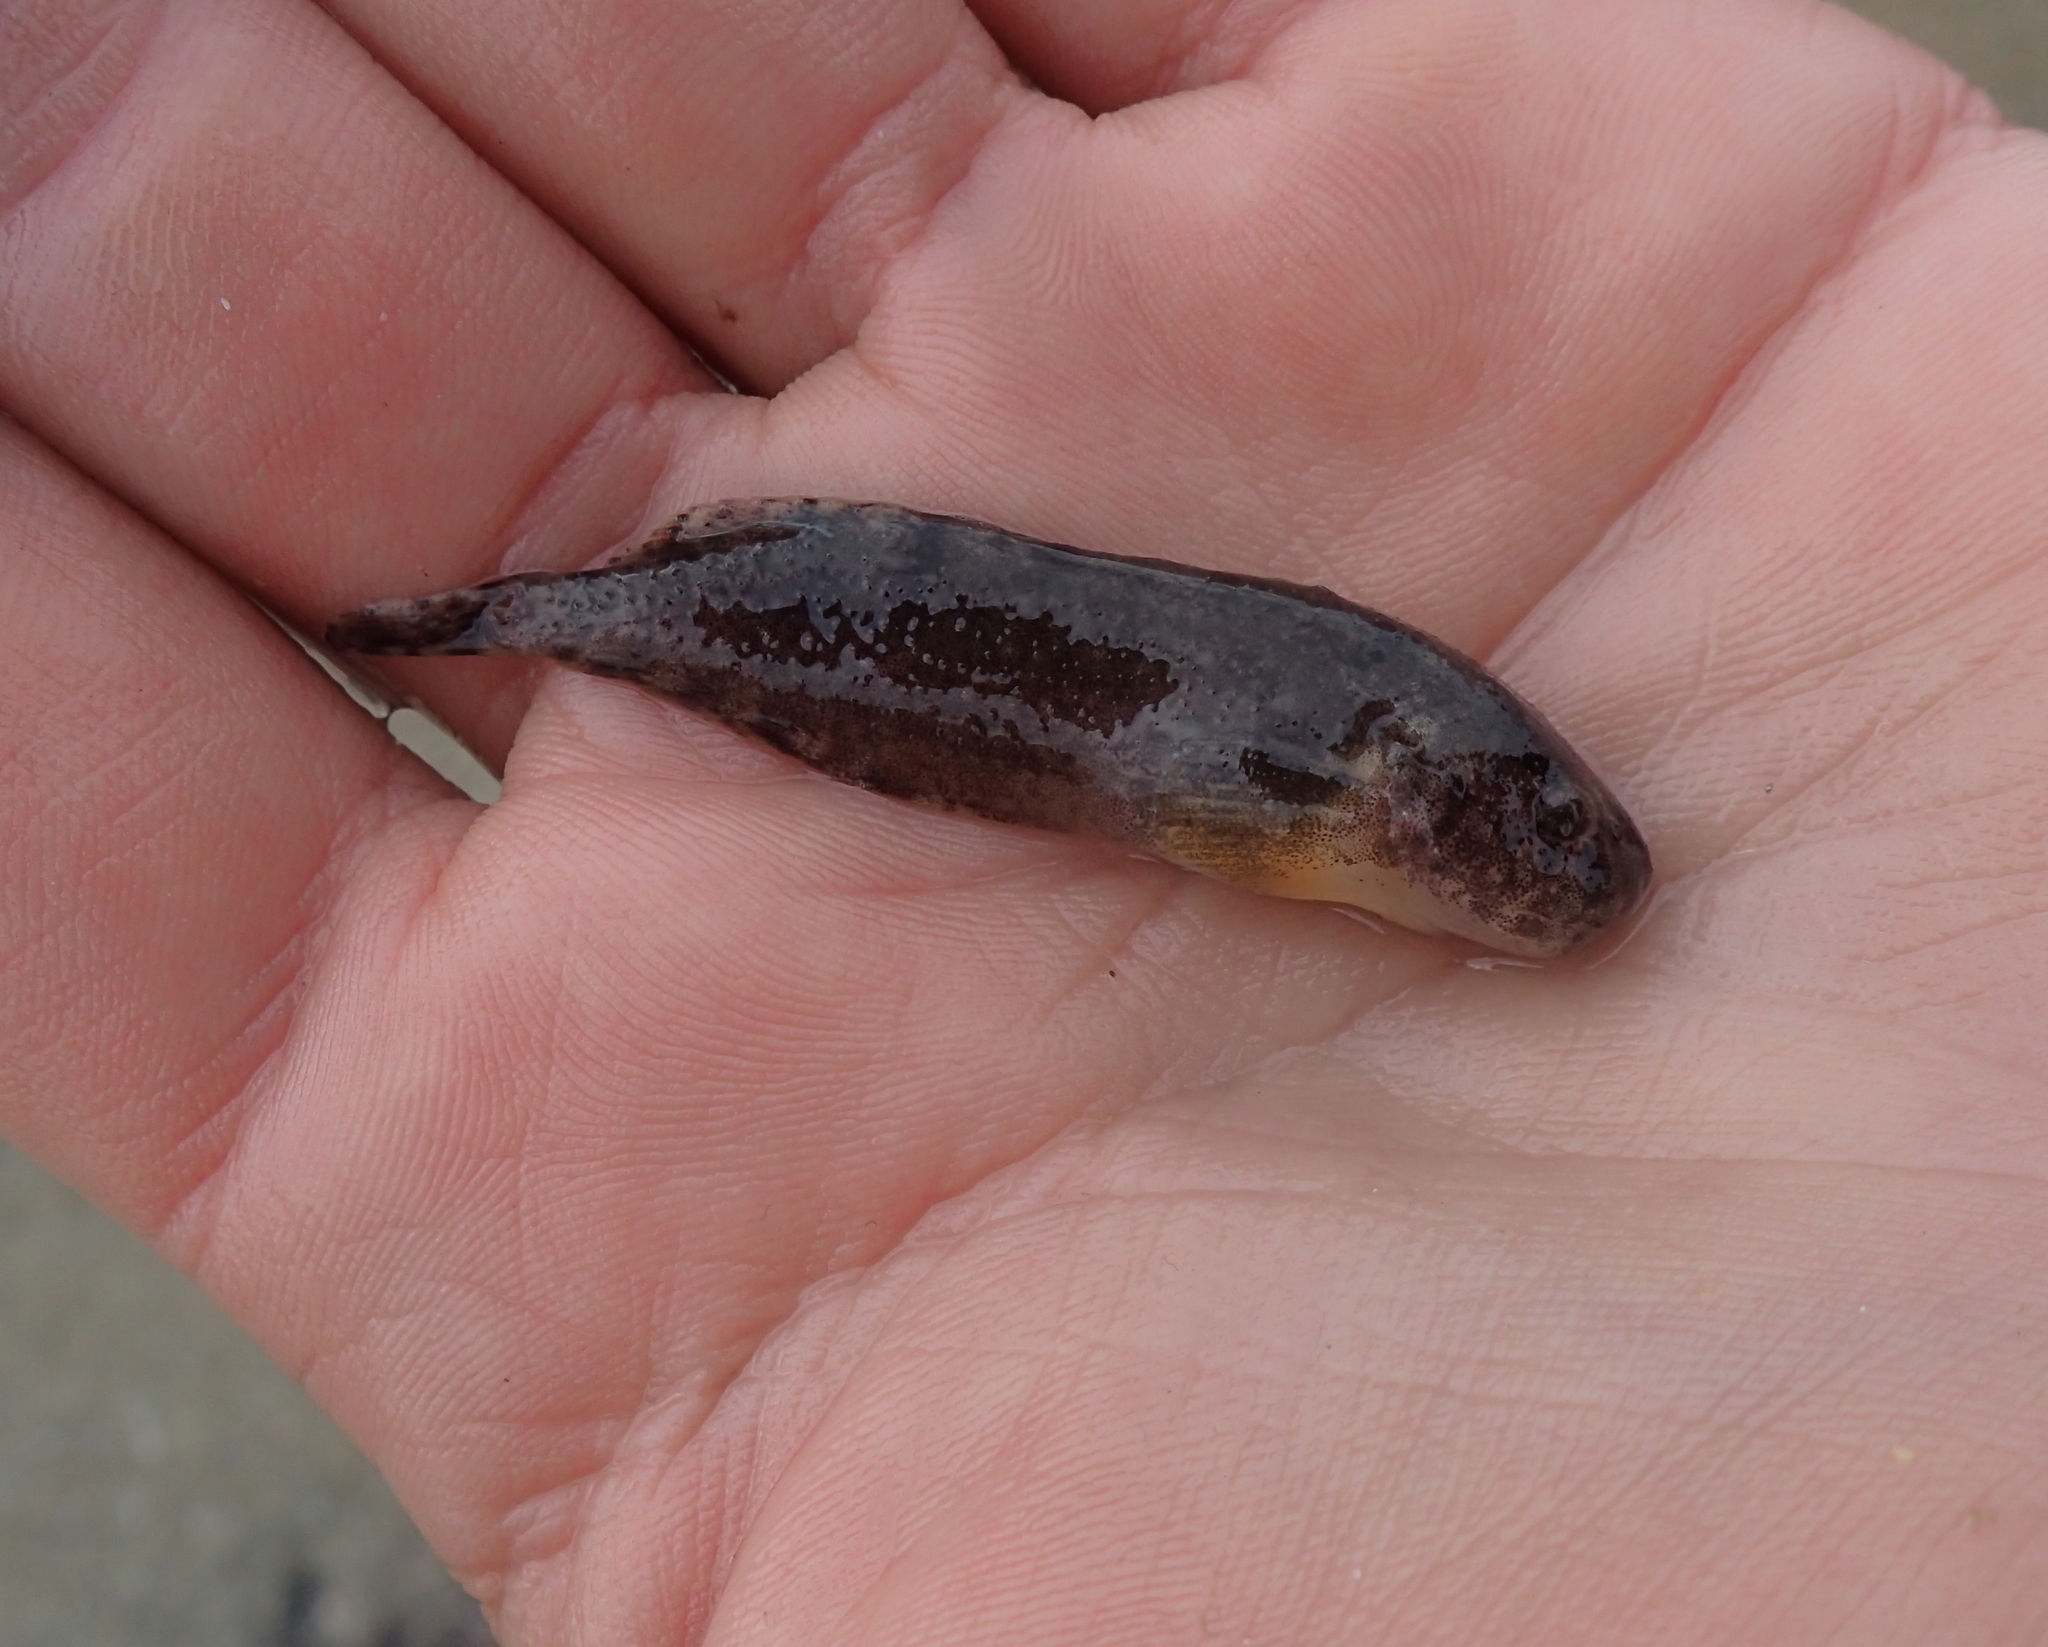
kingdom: Animalia
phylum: Chordata
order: Scorpaeniformes
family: Liparidae
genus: Liparis
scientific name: Liparis montagui
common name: Montagu's sea-snail
